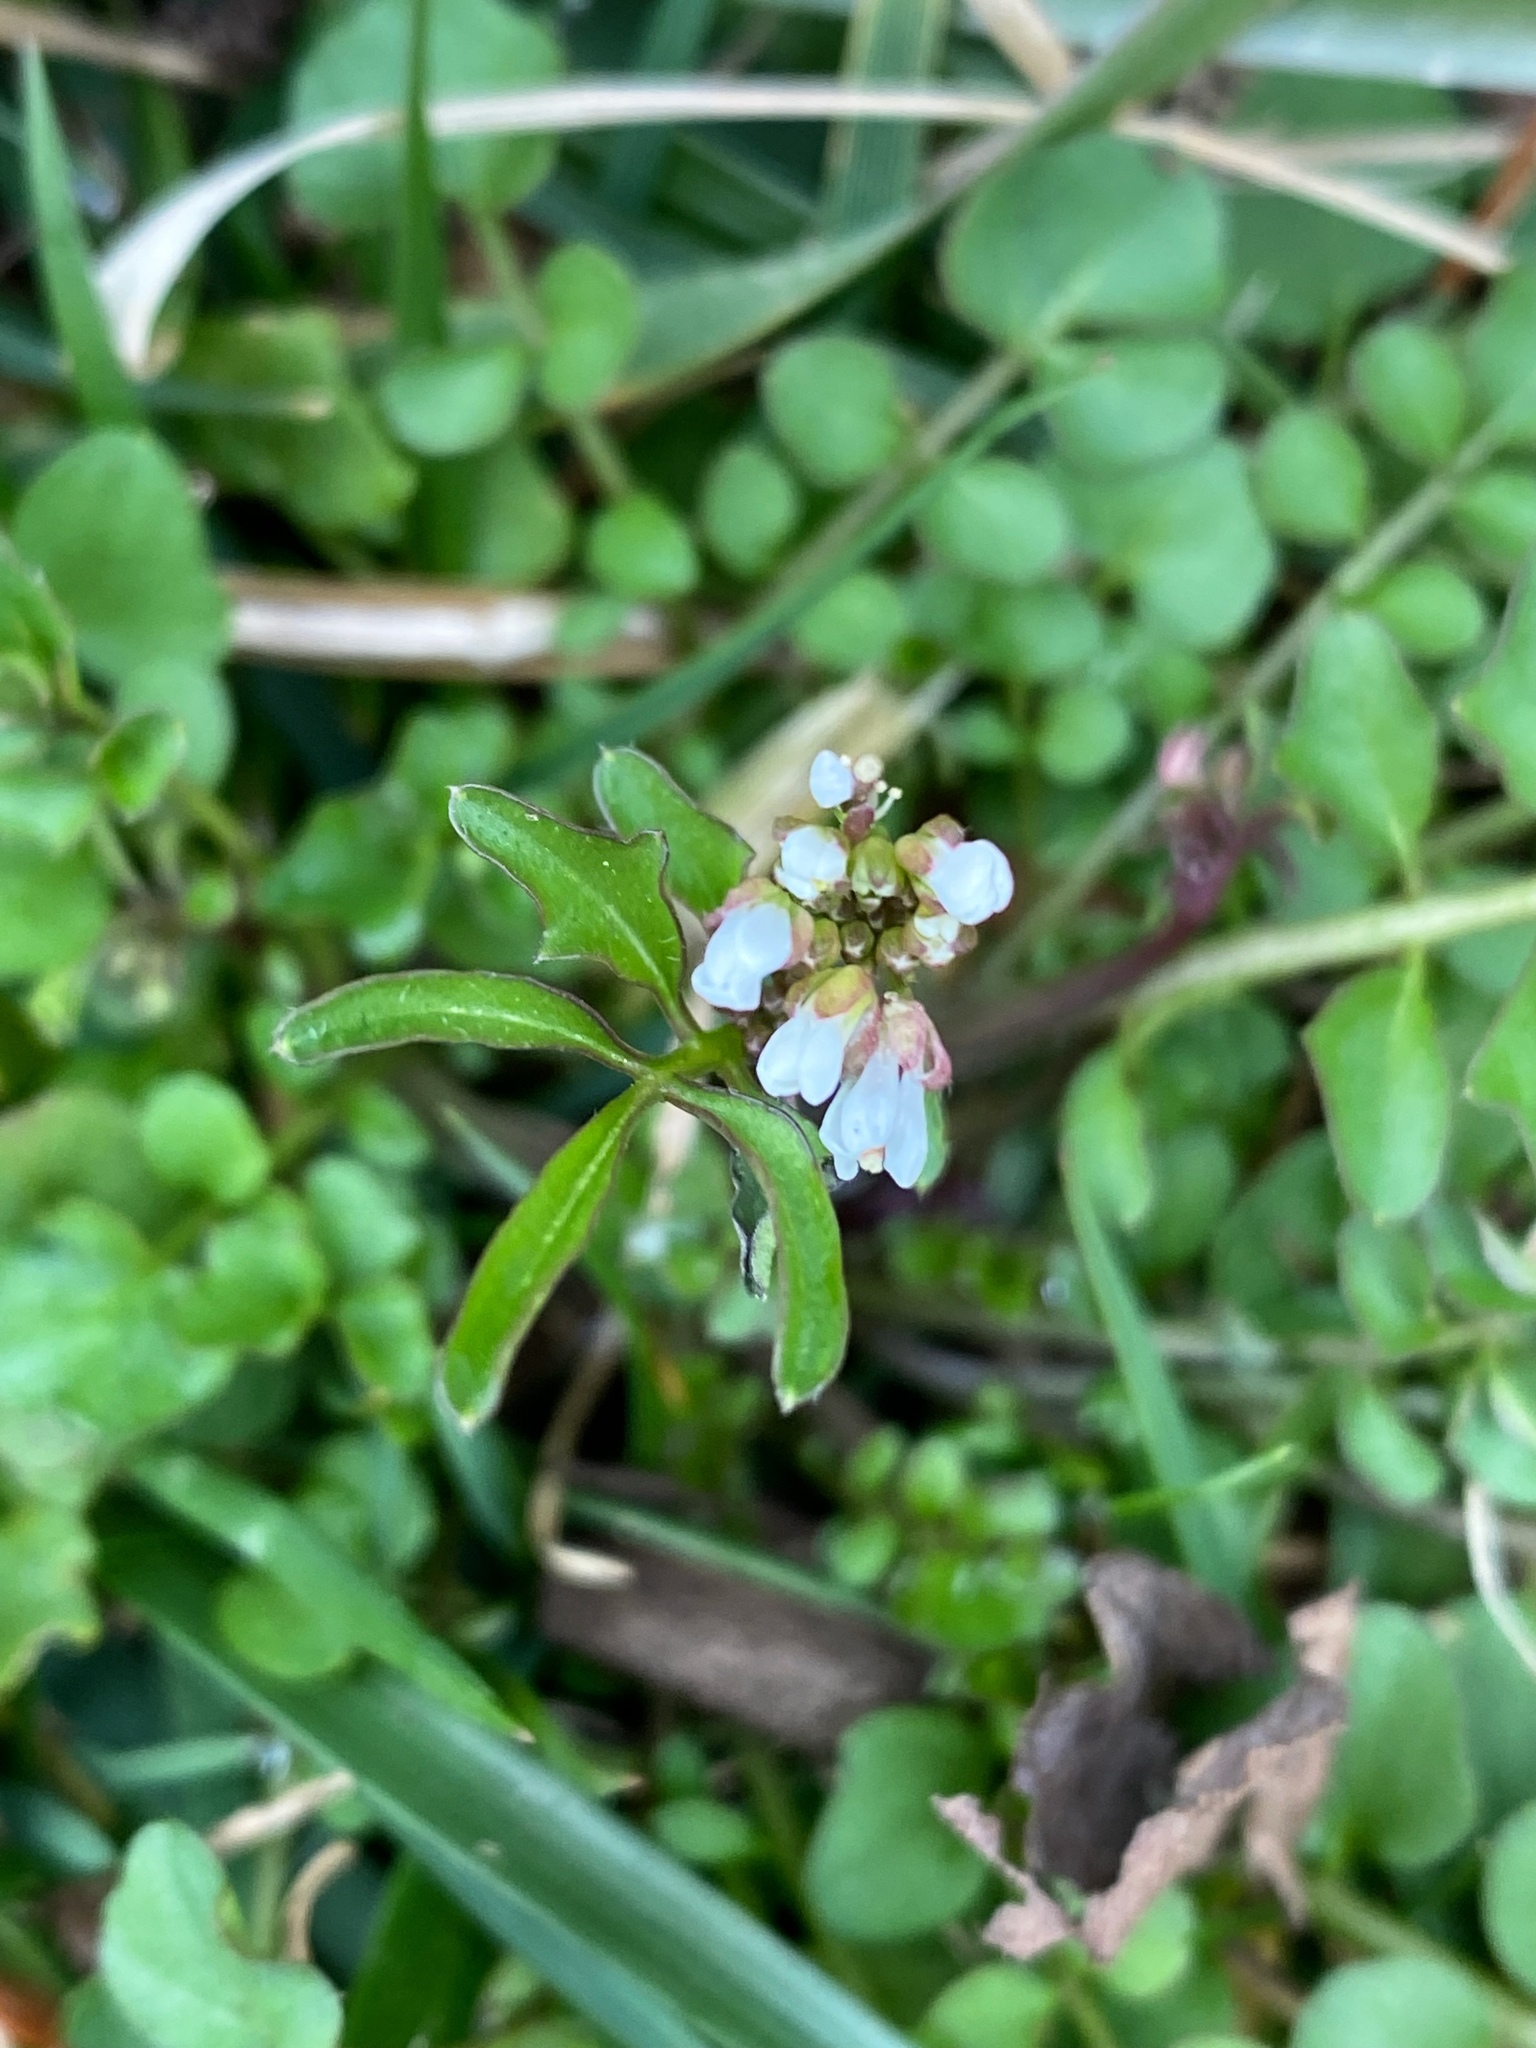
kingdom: Plantae
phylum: Tracheophyta
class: Magnoliopsida
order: Brassicales
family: Brassicaceae
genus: Cardamine
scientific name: Cardamine hirsuta
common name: Hairy bittercress
